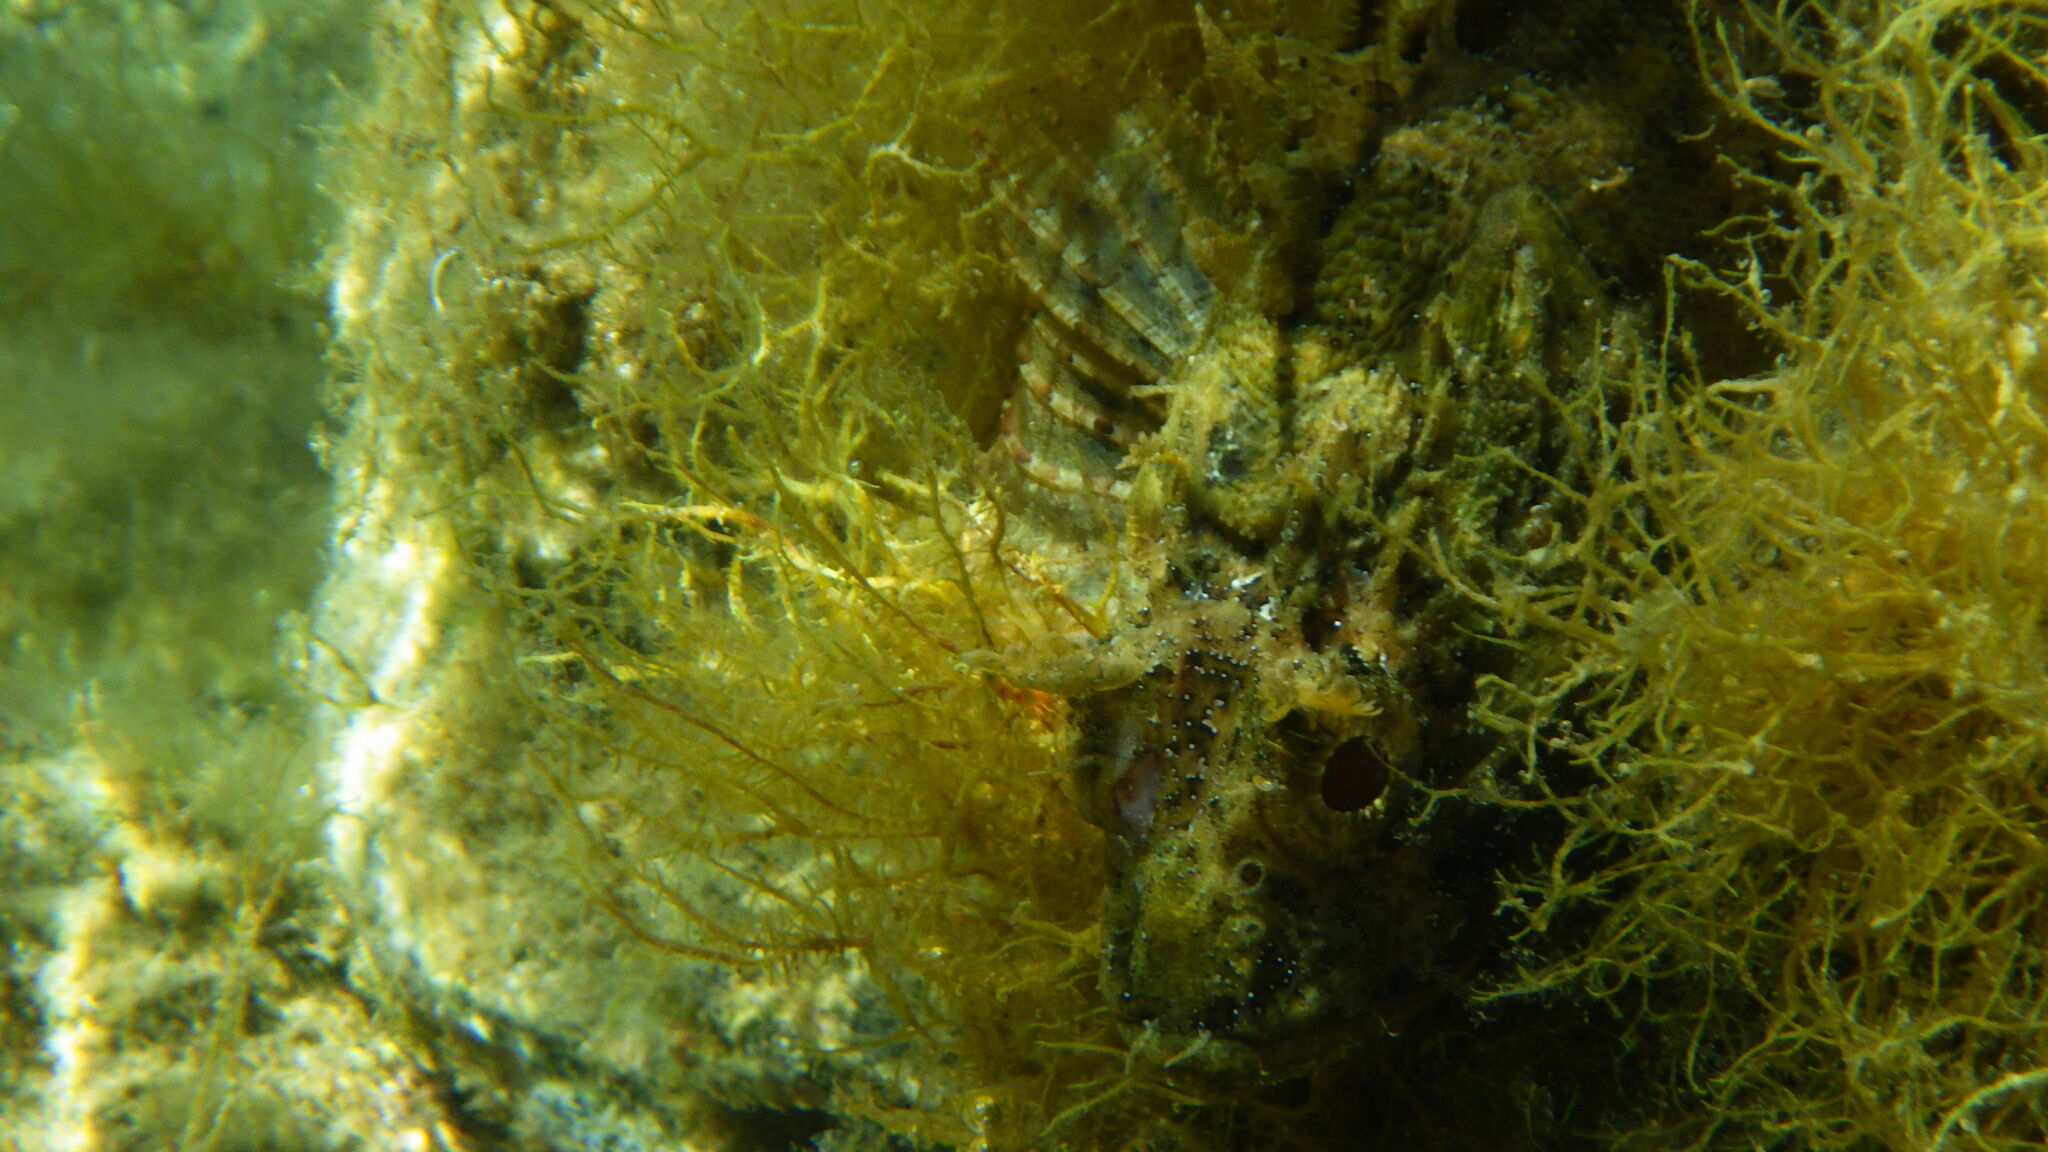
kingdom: Animalia
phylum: Chordata
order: Scorpaeniformes
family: Scorpaenidae
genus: Scorpaena
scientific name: Scorpaena porcus
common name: Black scorpionfish
